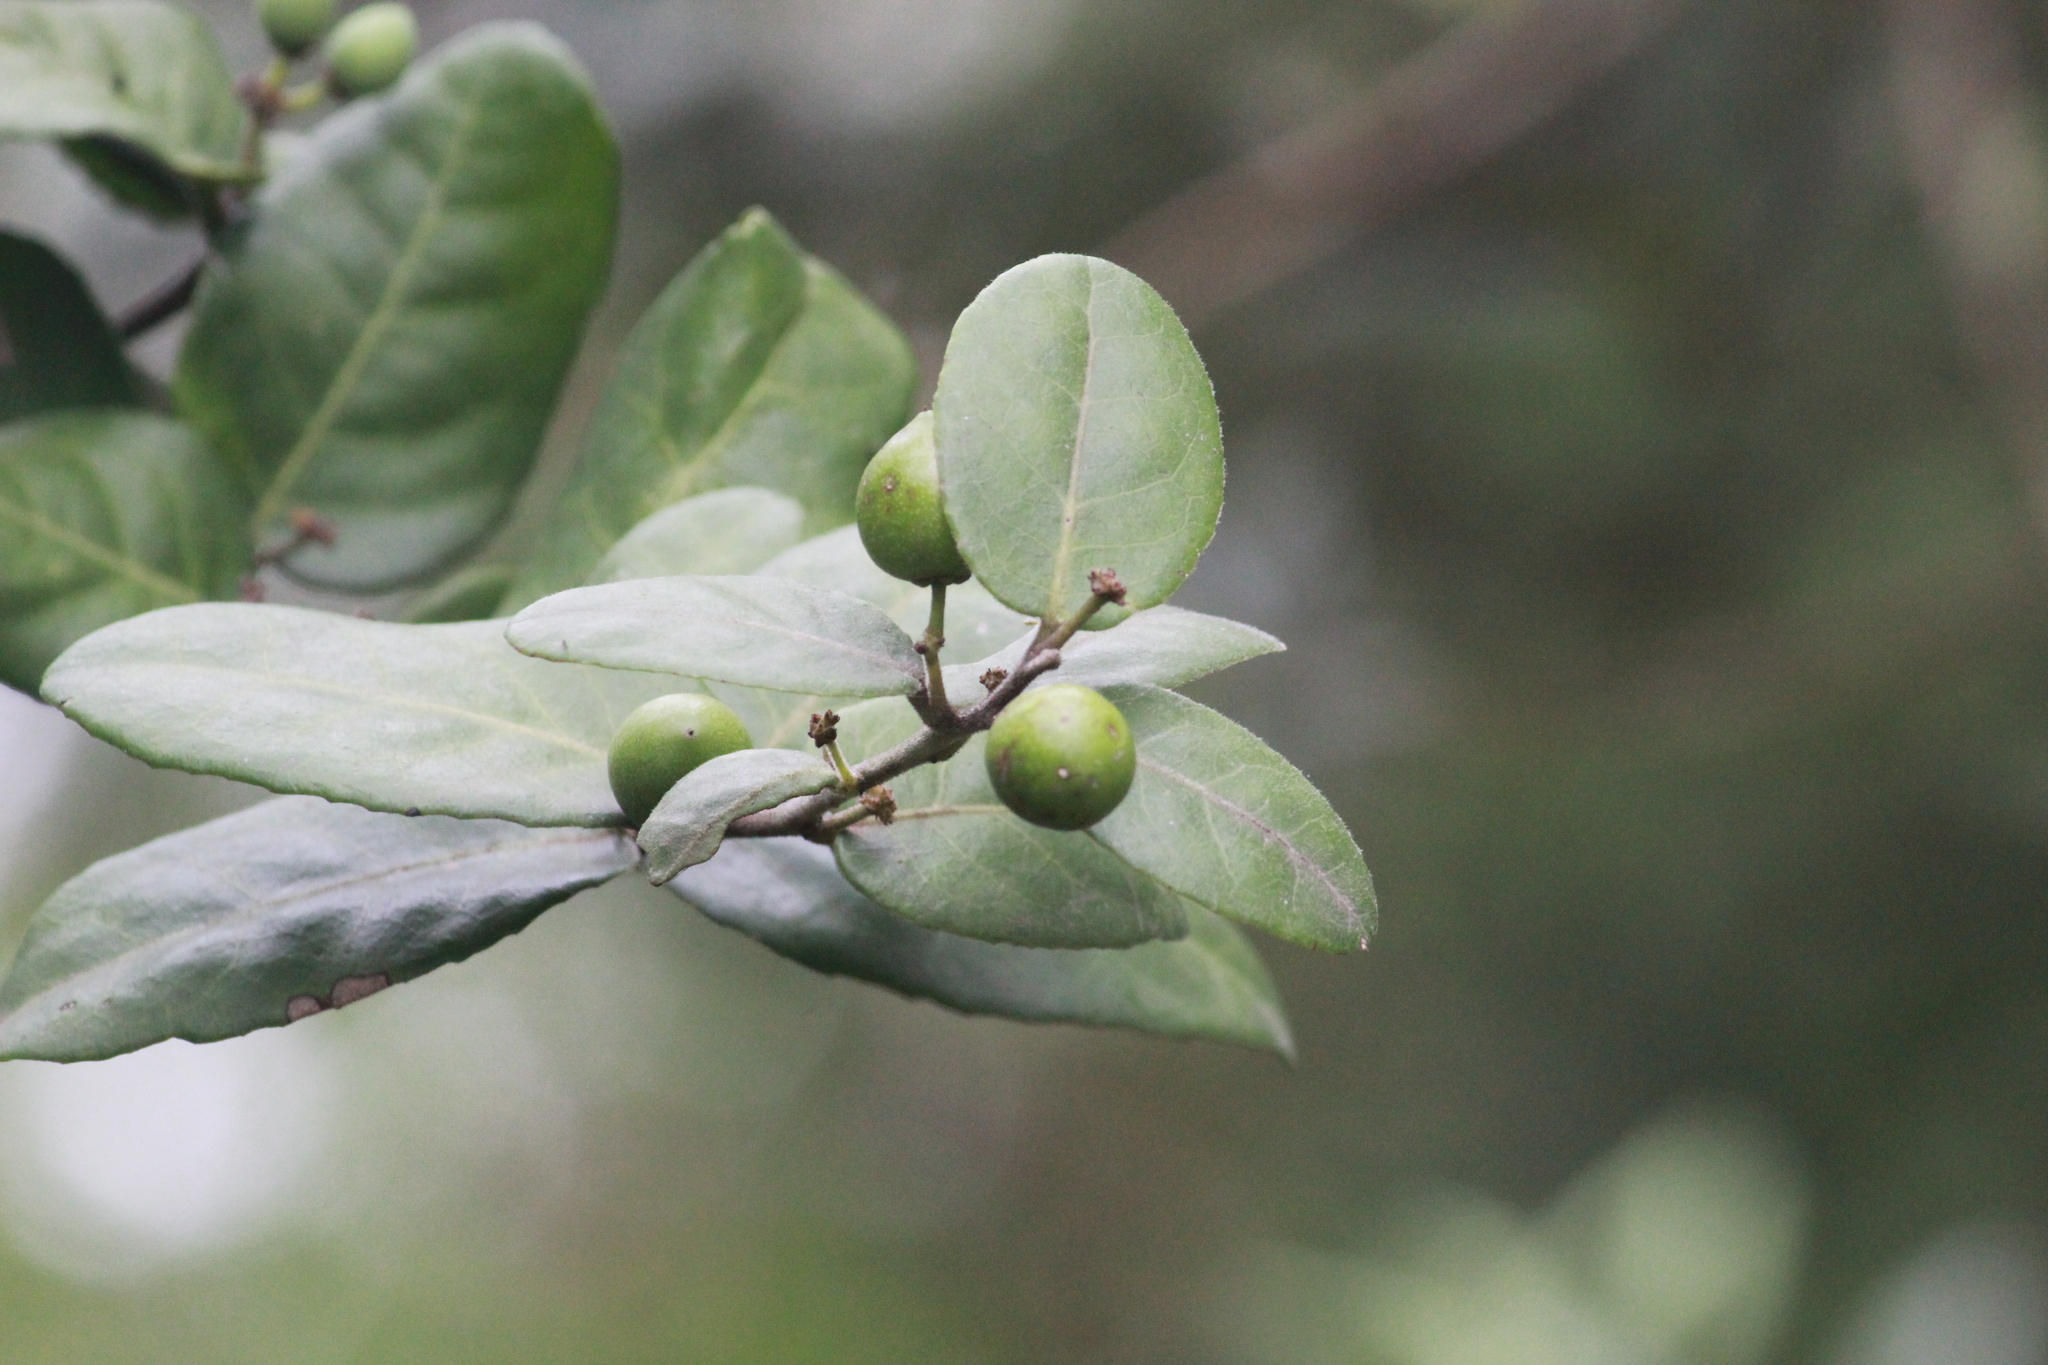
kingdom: Plantae
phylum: Tracheophyta
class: Magnoliopsida
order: Celastrales
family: Celastraceae
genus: Mystroxylon
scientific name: Mystroxylon aethiopicum
